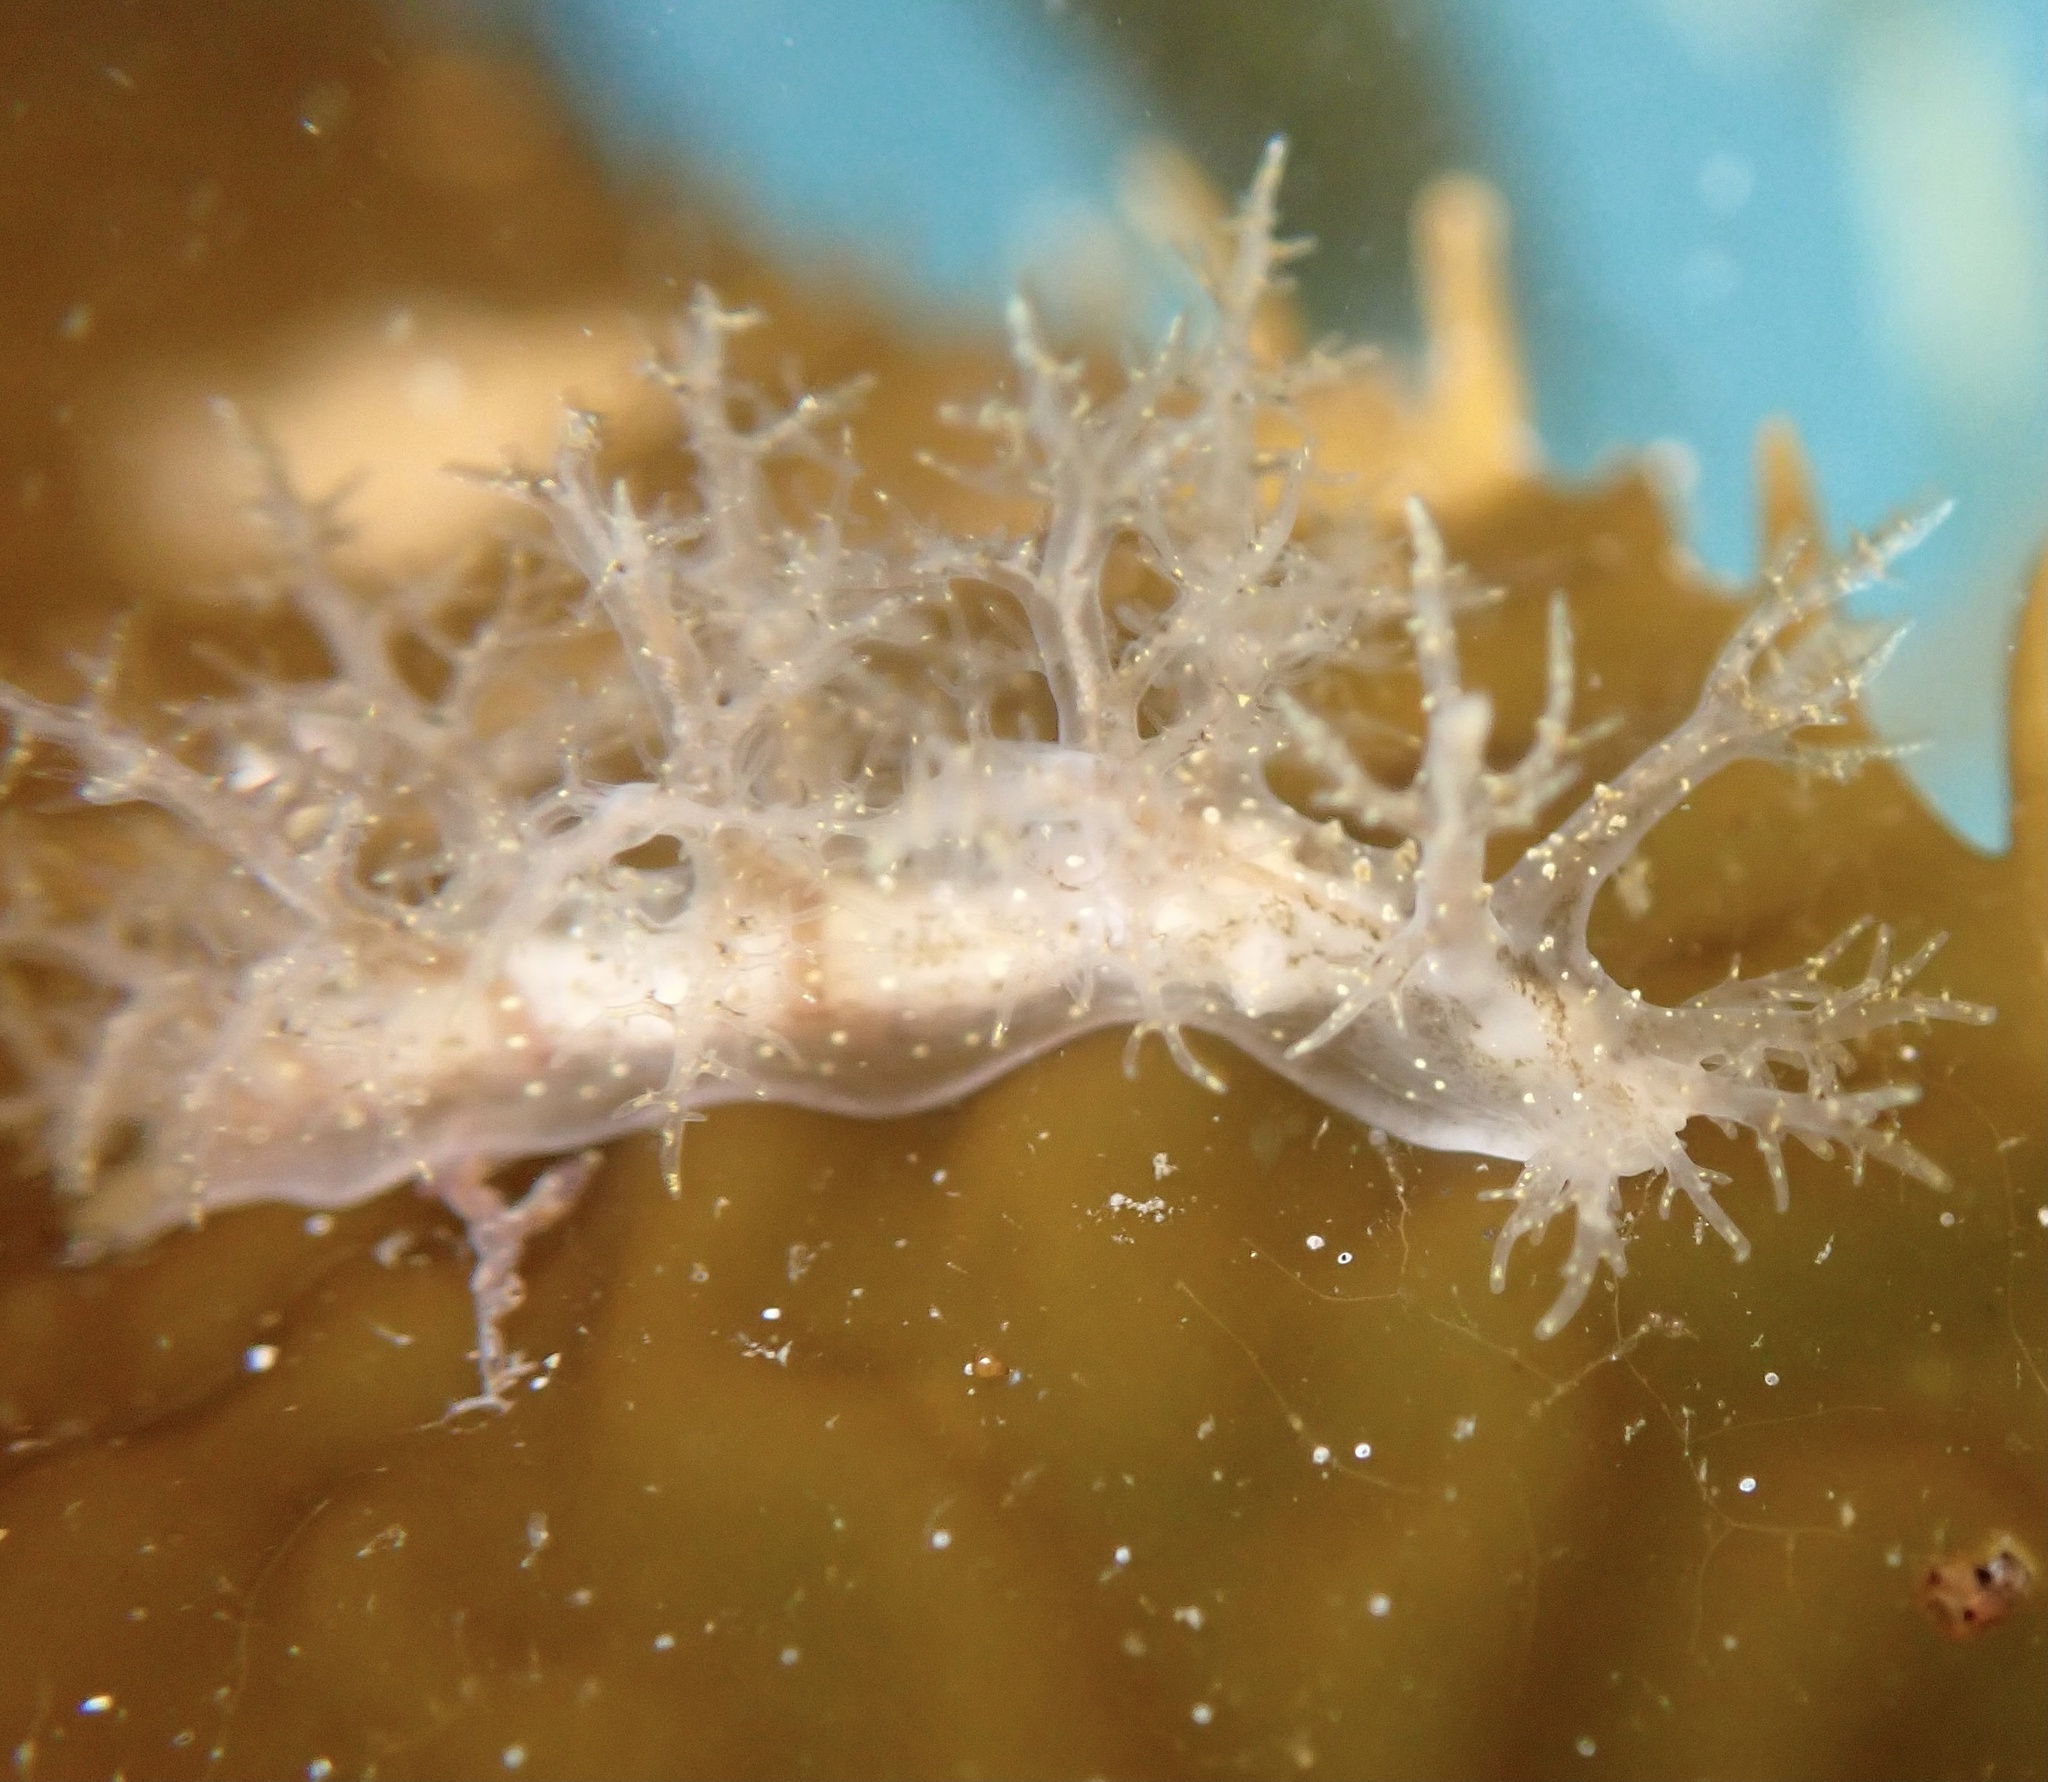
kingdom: Animalia
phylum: Mollusca
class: Gastropoda
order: Nudibranchia
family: Dendronotidae
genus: Dendronotus
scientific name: Dendronotus venustus
